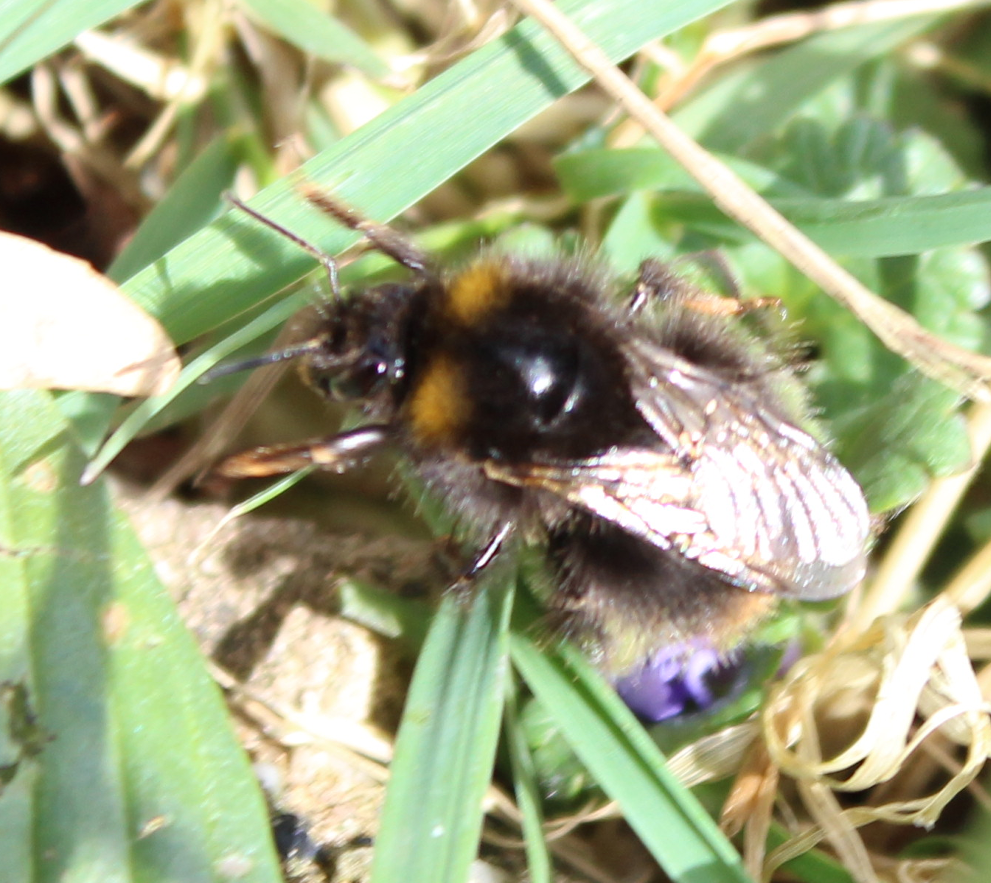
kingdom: Animalia
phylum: Arthropoda
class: Insecta
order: Hymenoptera
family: Apidae
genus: Bombus
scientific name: Bombus pratorum
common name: Early humble-bee
